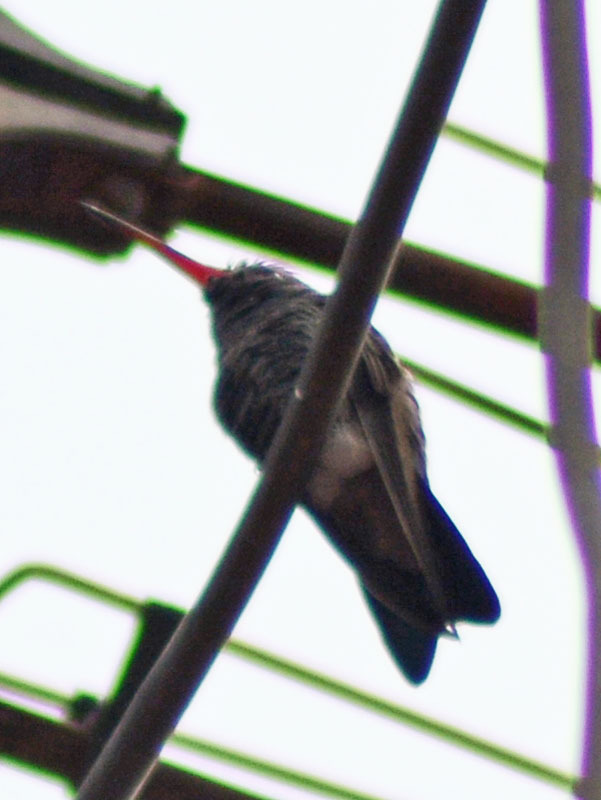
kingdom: Animalia
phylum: Chordata
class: Aves
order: Apodiformes
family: Trochilidae
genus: Cynanthus
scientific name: Cynanthus latirostris
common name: Broad-billed hummingbird
